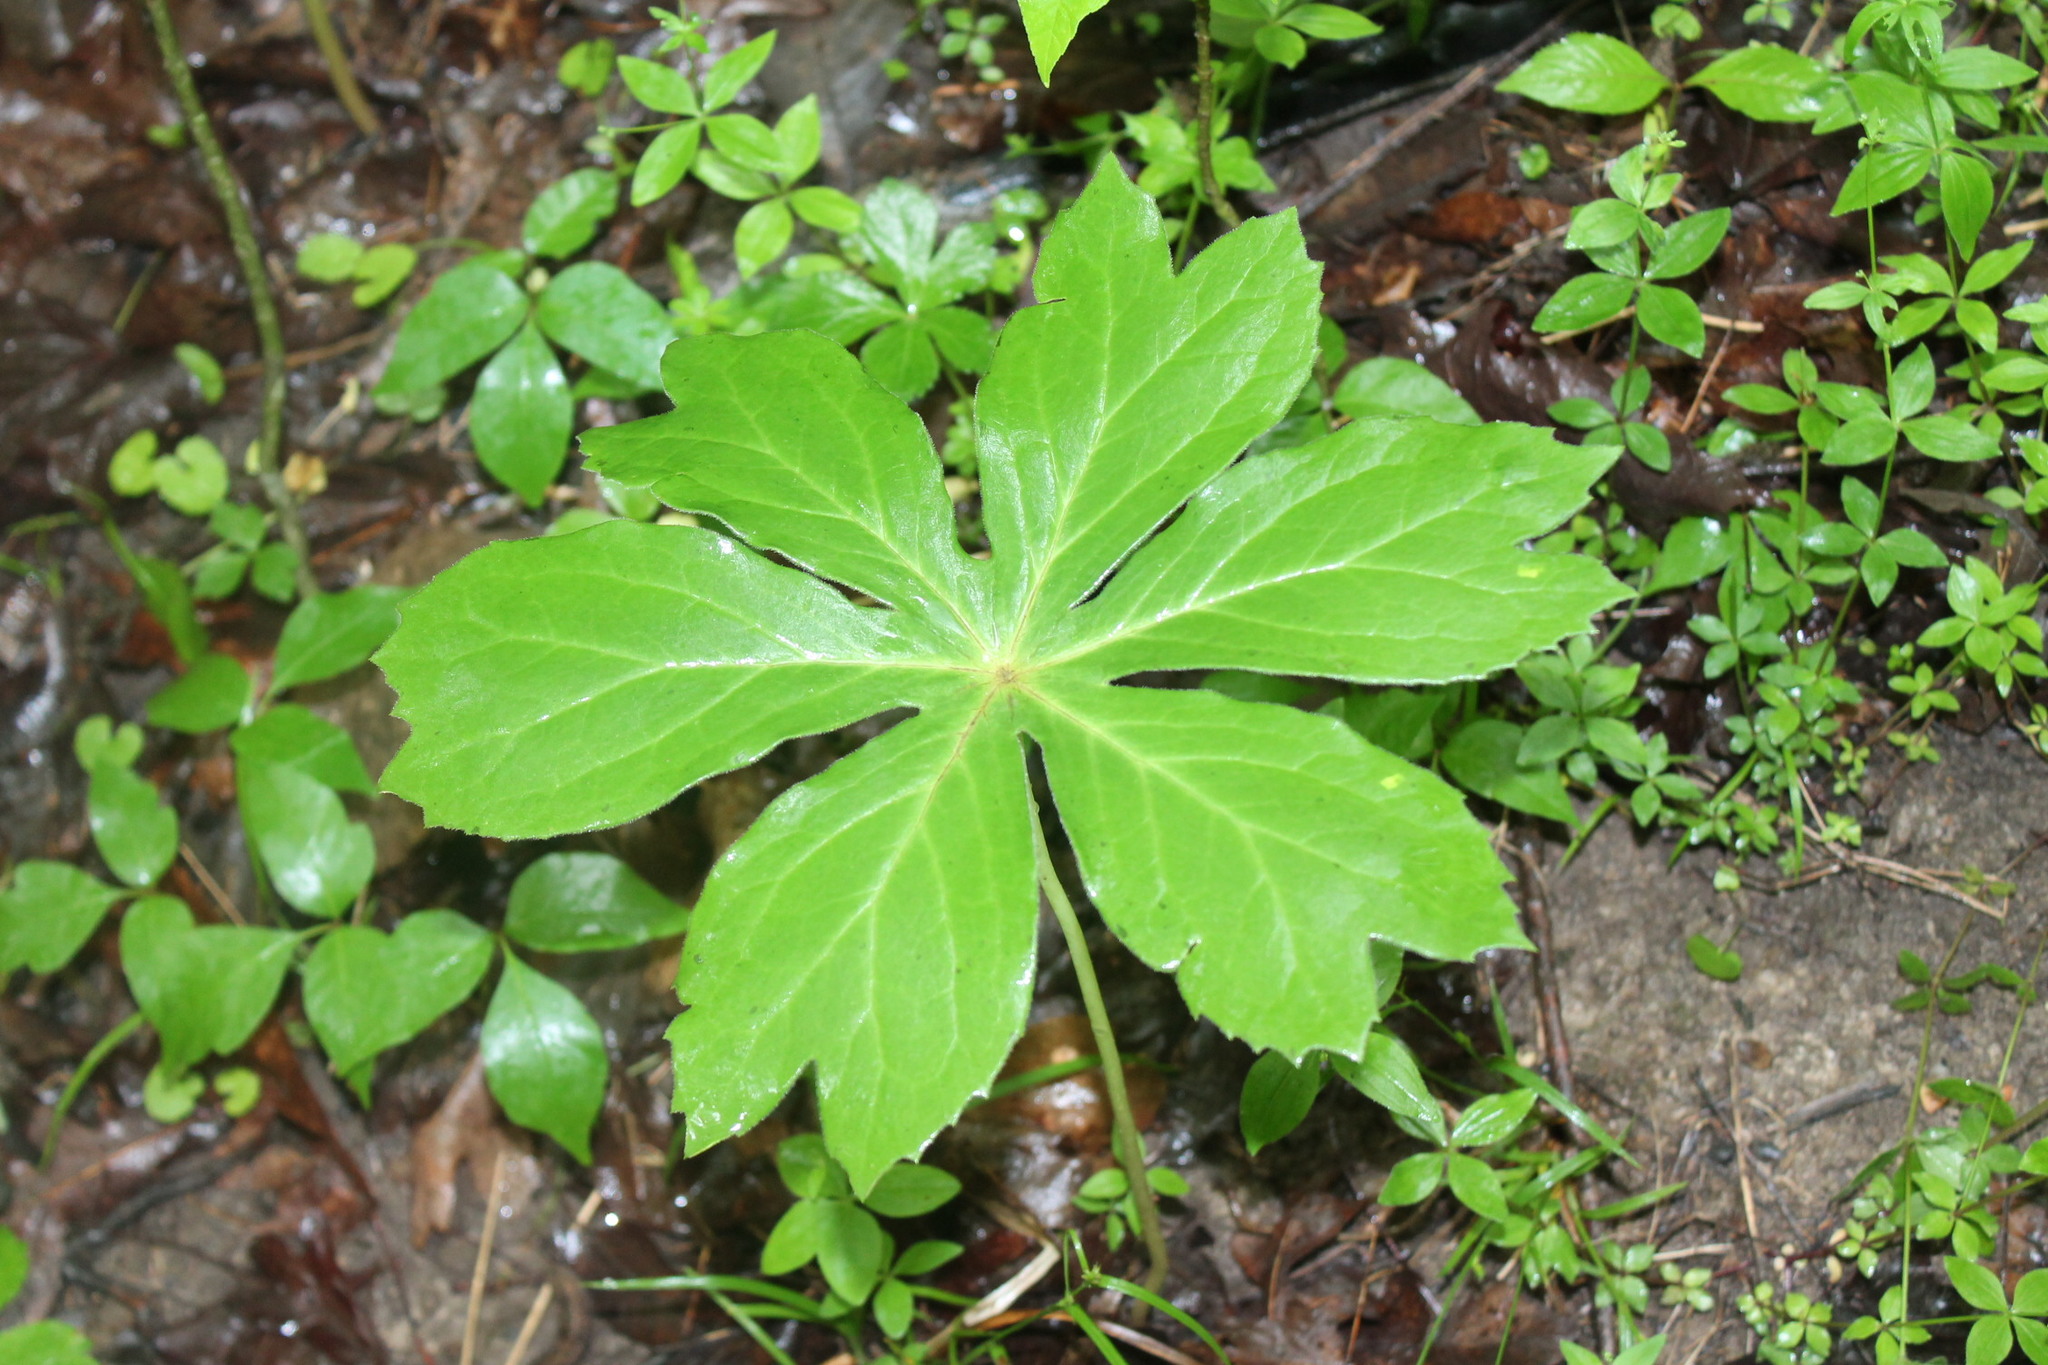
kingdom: Plantae
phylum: Tracheophyta
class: Magnoliopsida
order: Ranunculales
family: Berberidaceae
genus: Podophyllum
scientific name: Podophyllum peltatum
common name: Wild mandrake
